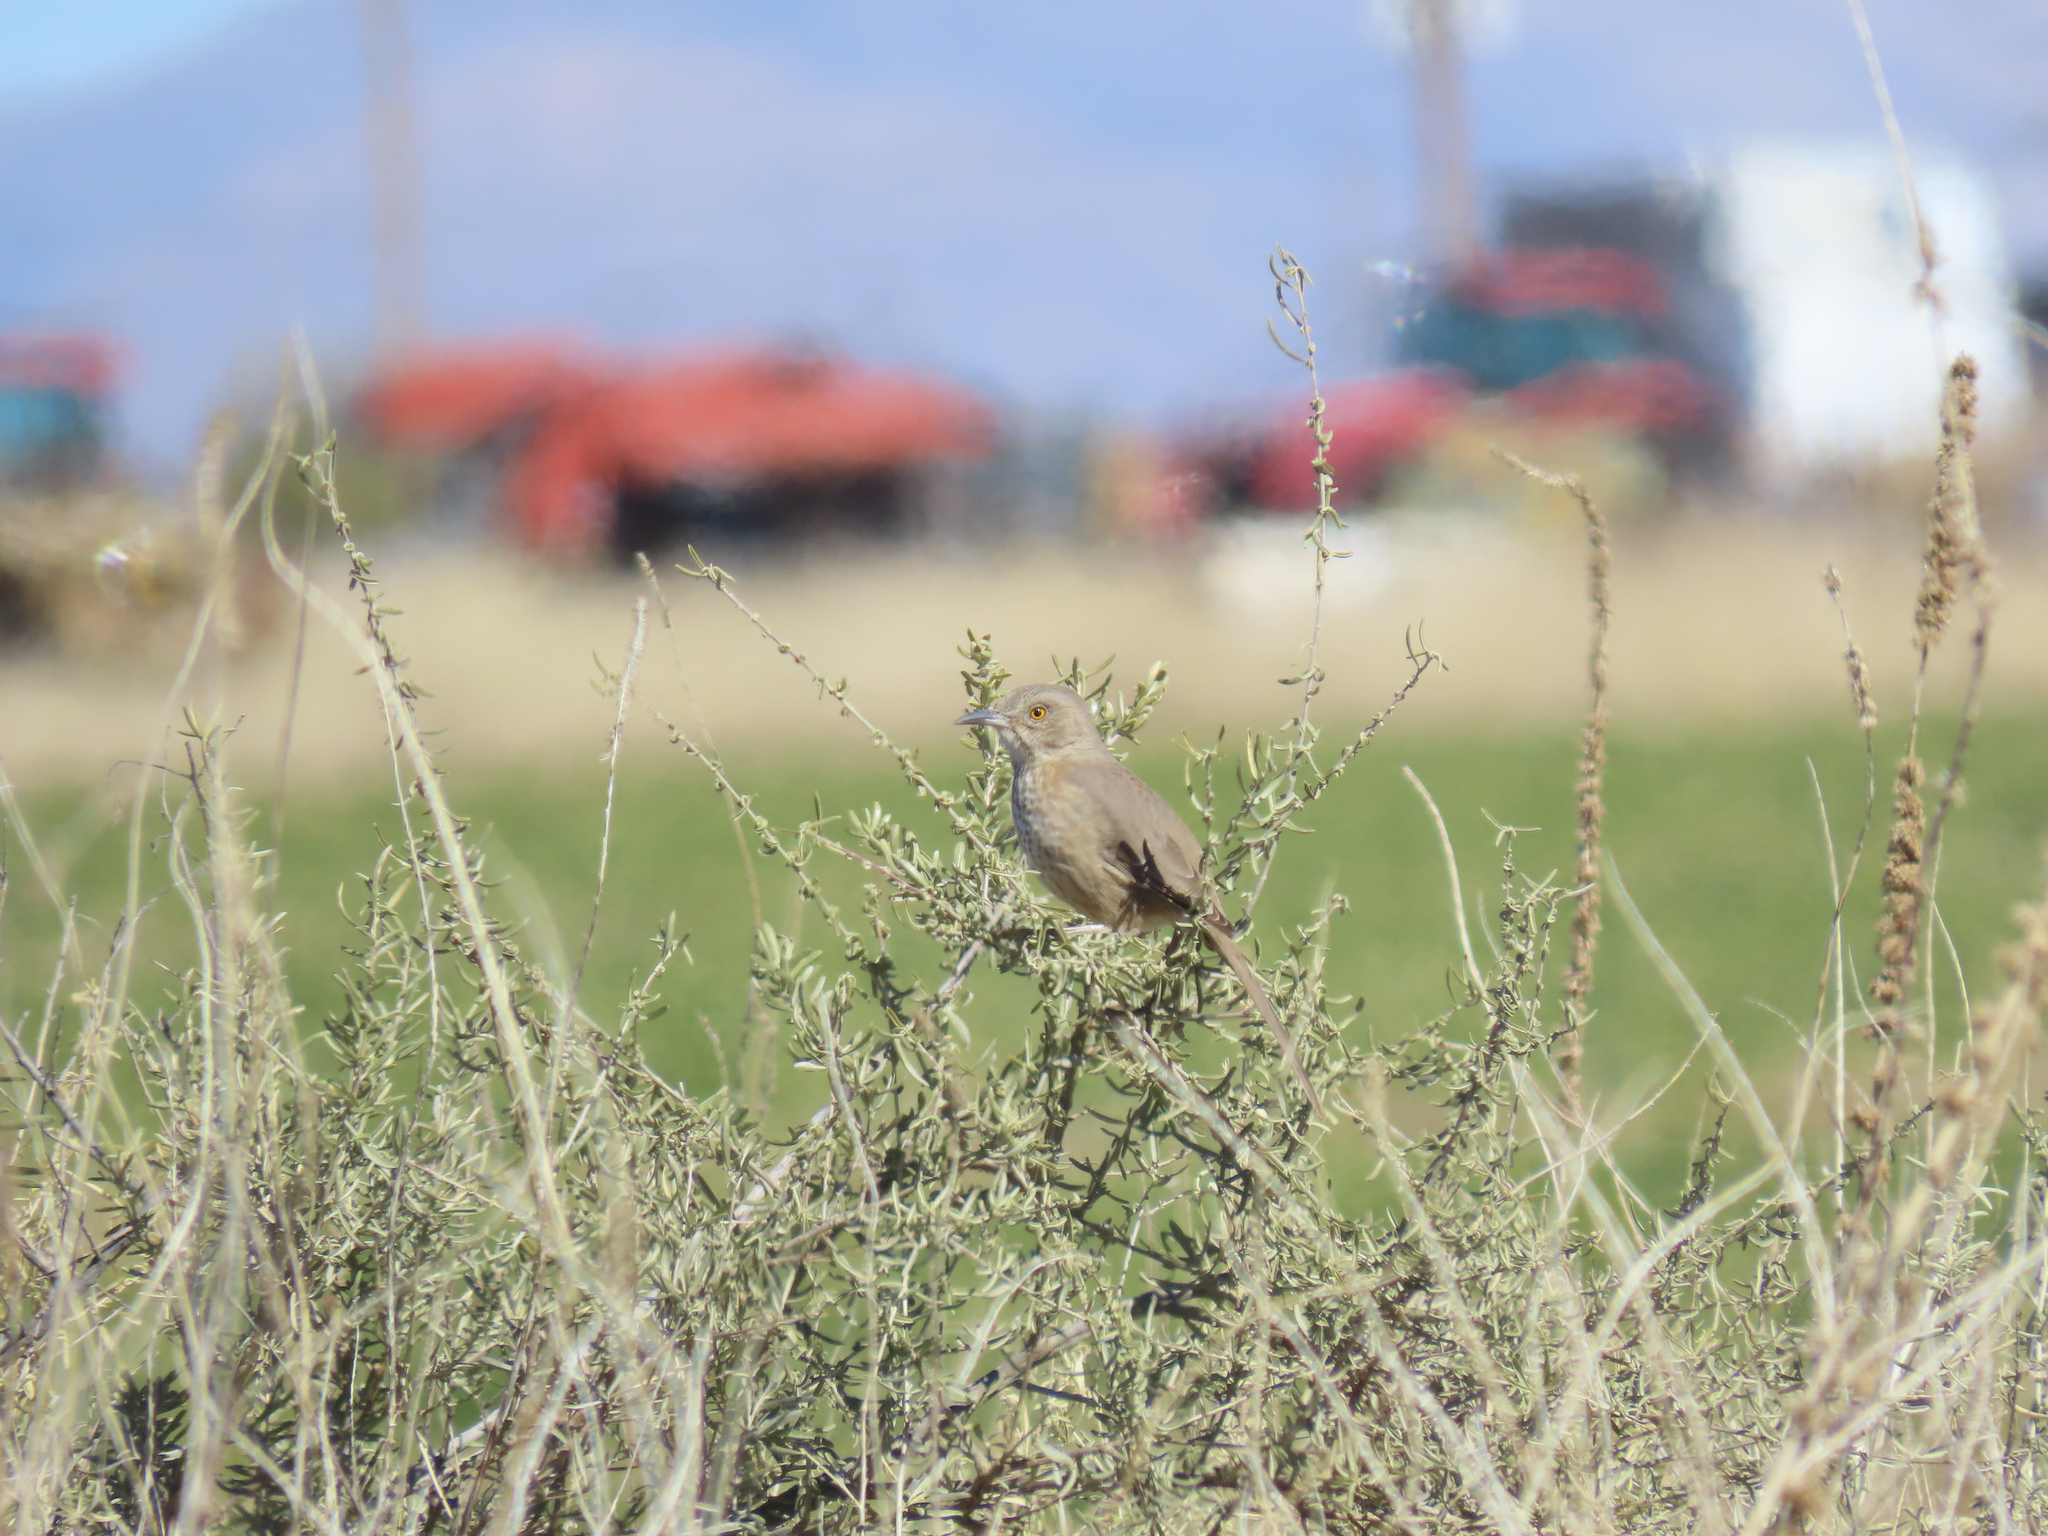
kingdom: Animalia
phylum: Chordata
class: Aves
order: Passeriformes
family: Mimidae
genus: Toxostoma
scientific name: Toxostoma bendirei
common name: Bendire's thrasher
